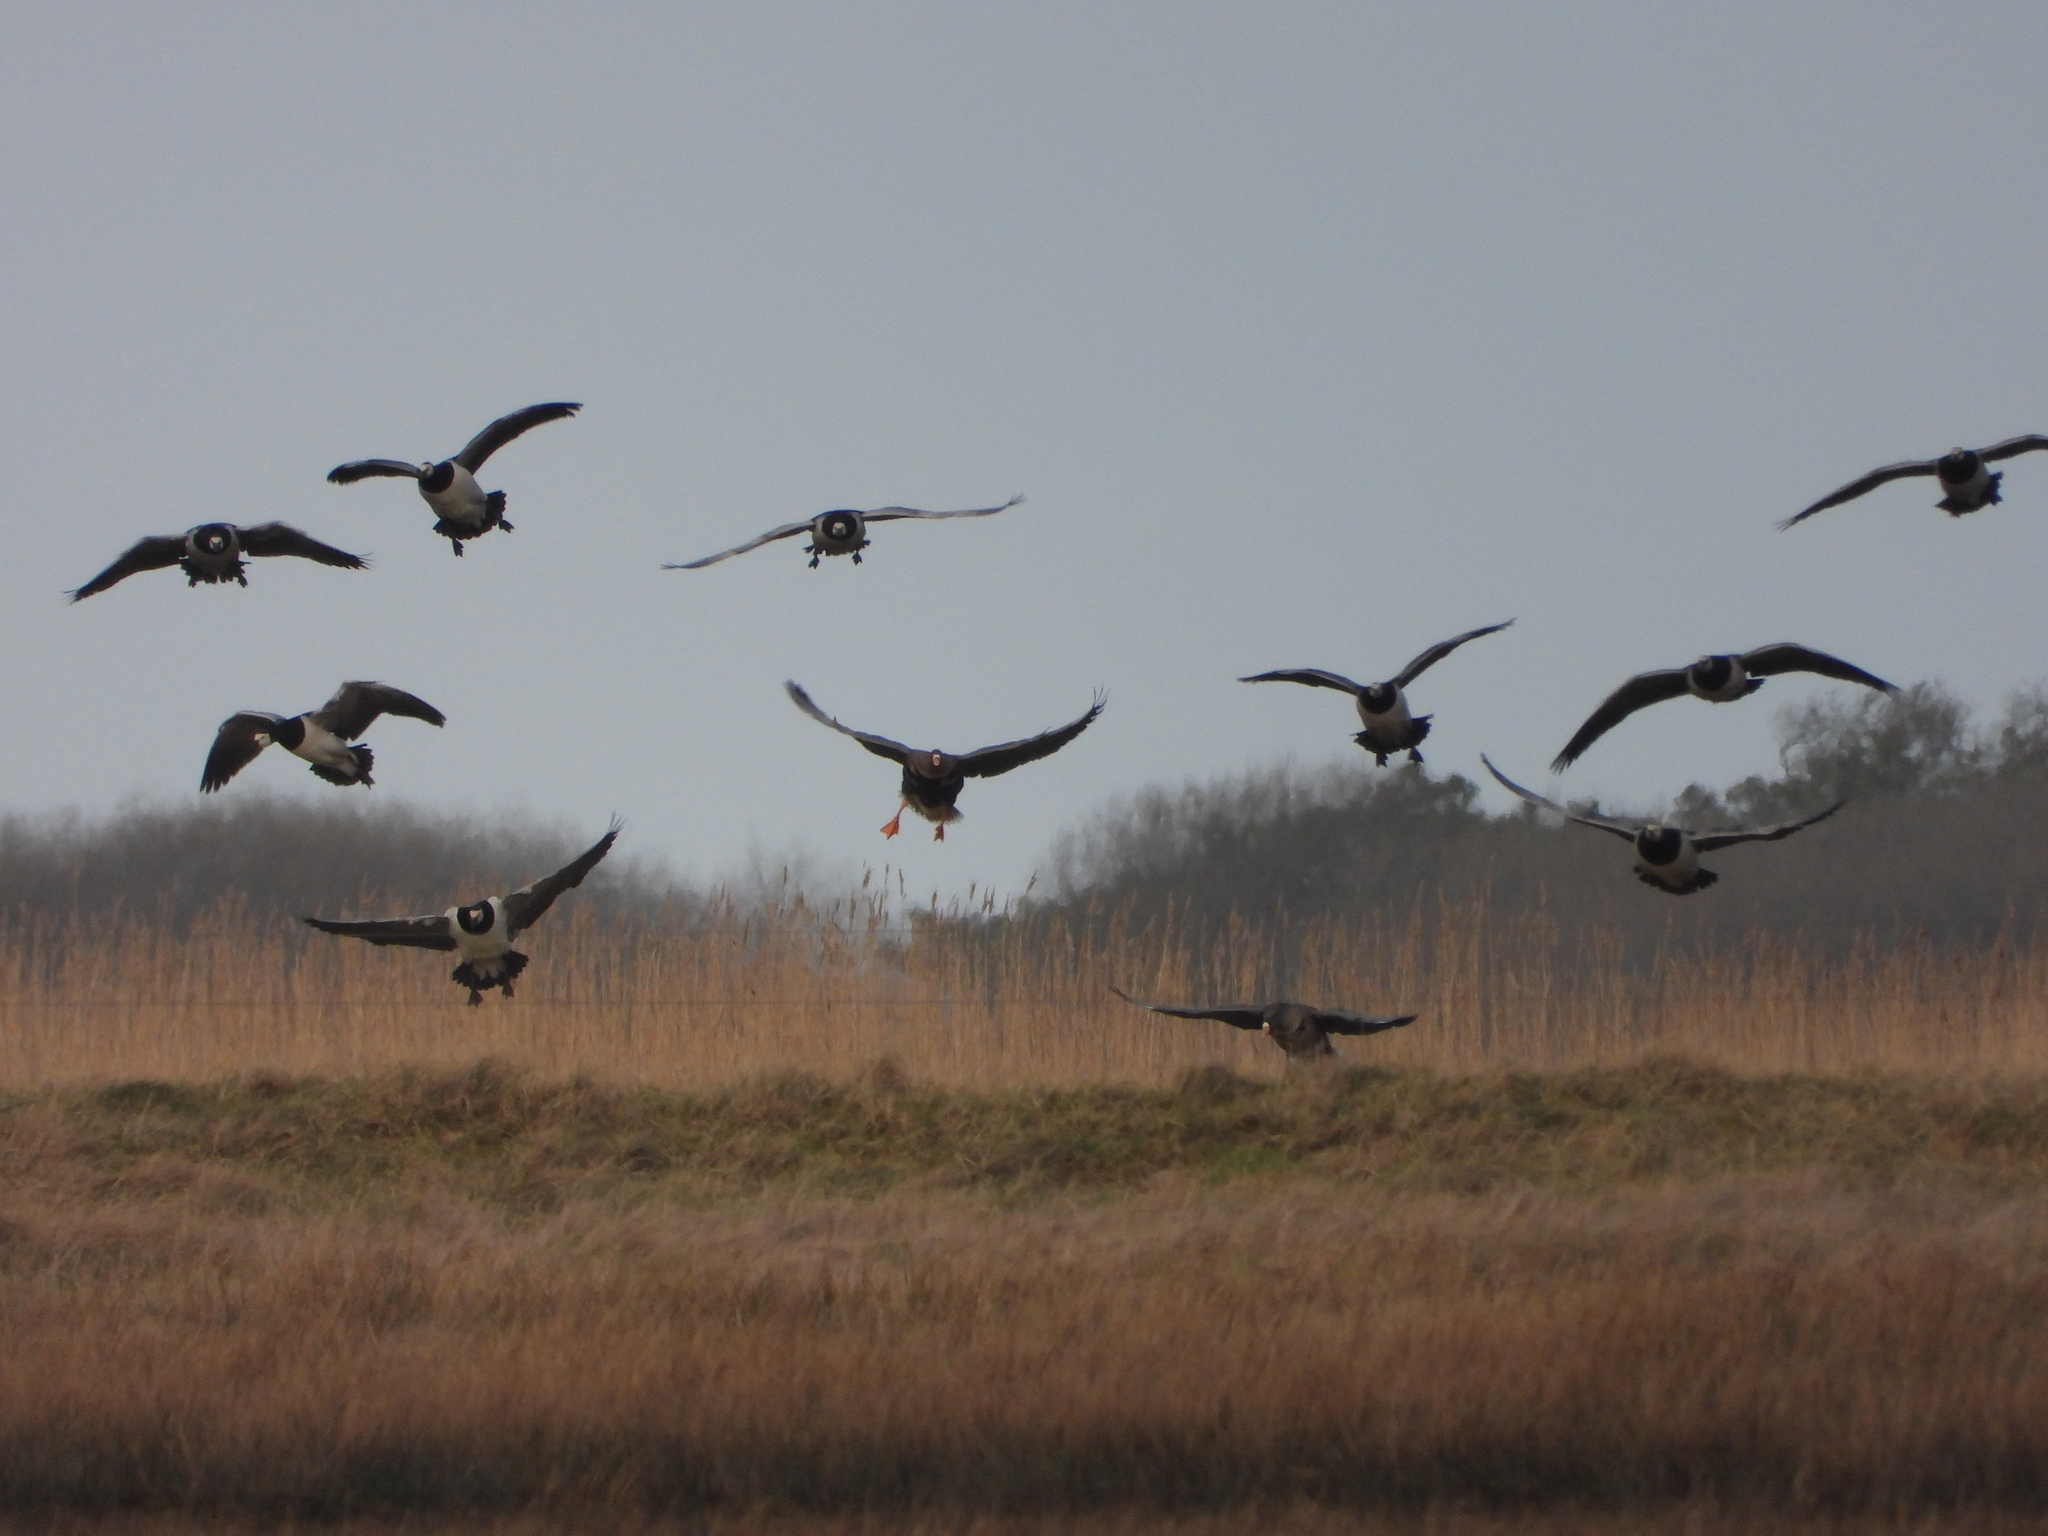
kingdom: Animalia
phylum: Chordata
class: Aves
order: Anseriformes
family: Anatidae
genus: Branta
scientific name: Branta leucopsis
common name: Barnacle goose
